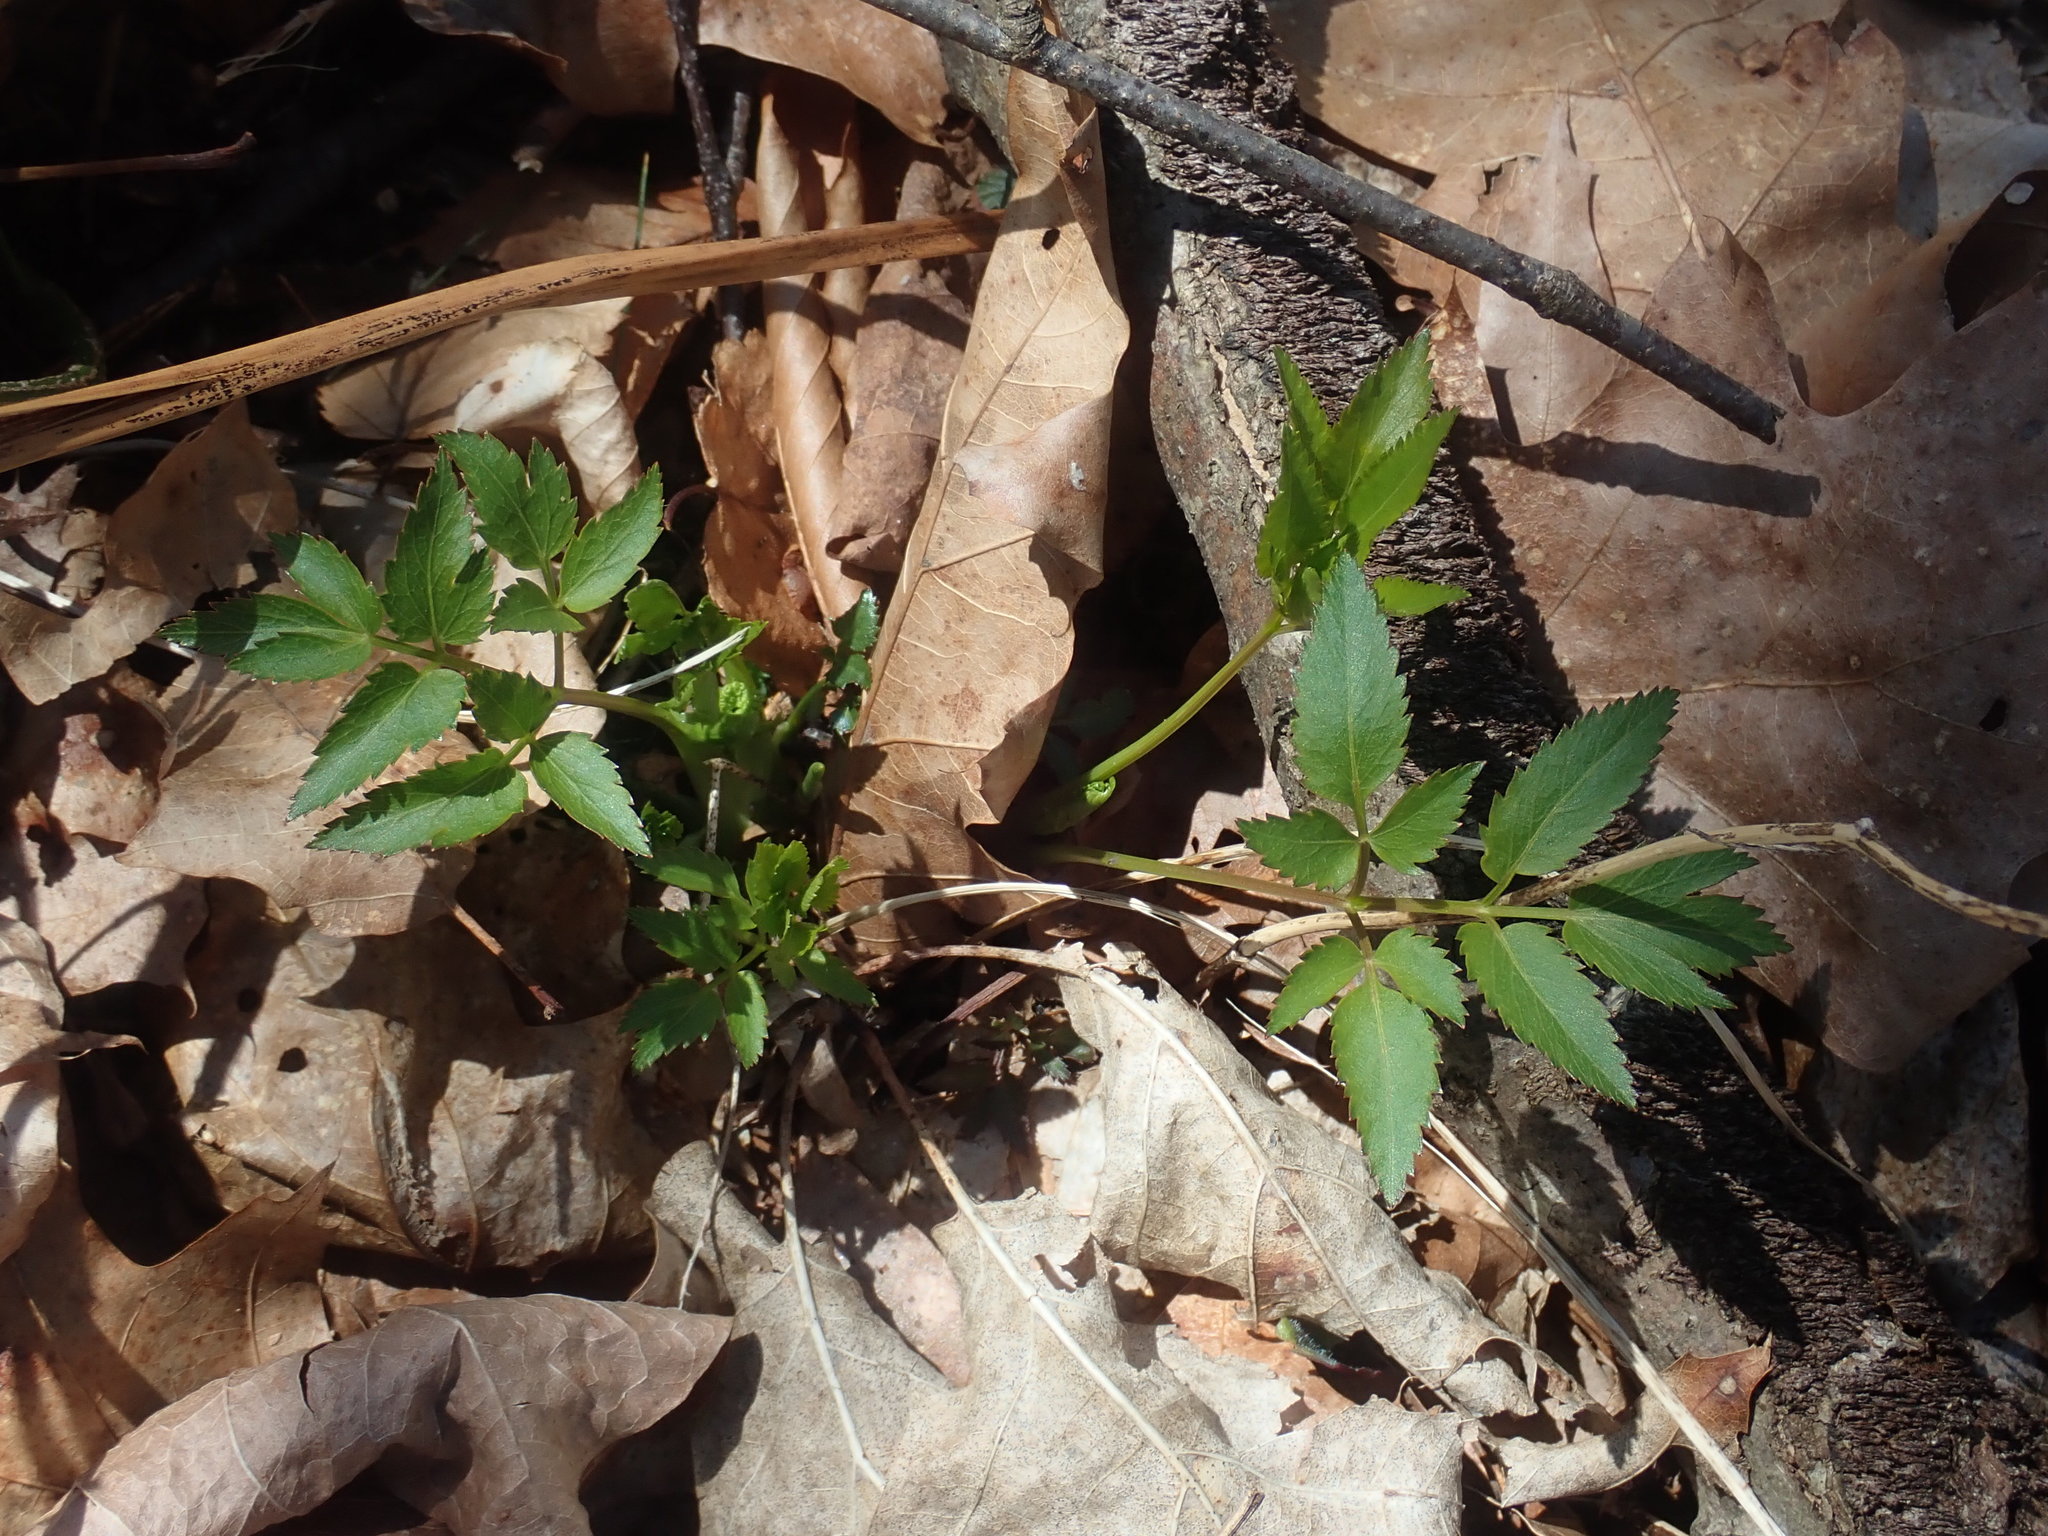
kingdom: Plantae
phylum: Tracheophyta
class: Magnoliopsida
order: Apiales
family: Apiaceae
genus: Zizia
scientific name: Zizia aurea
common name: Golden alexanders
